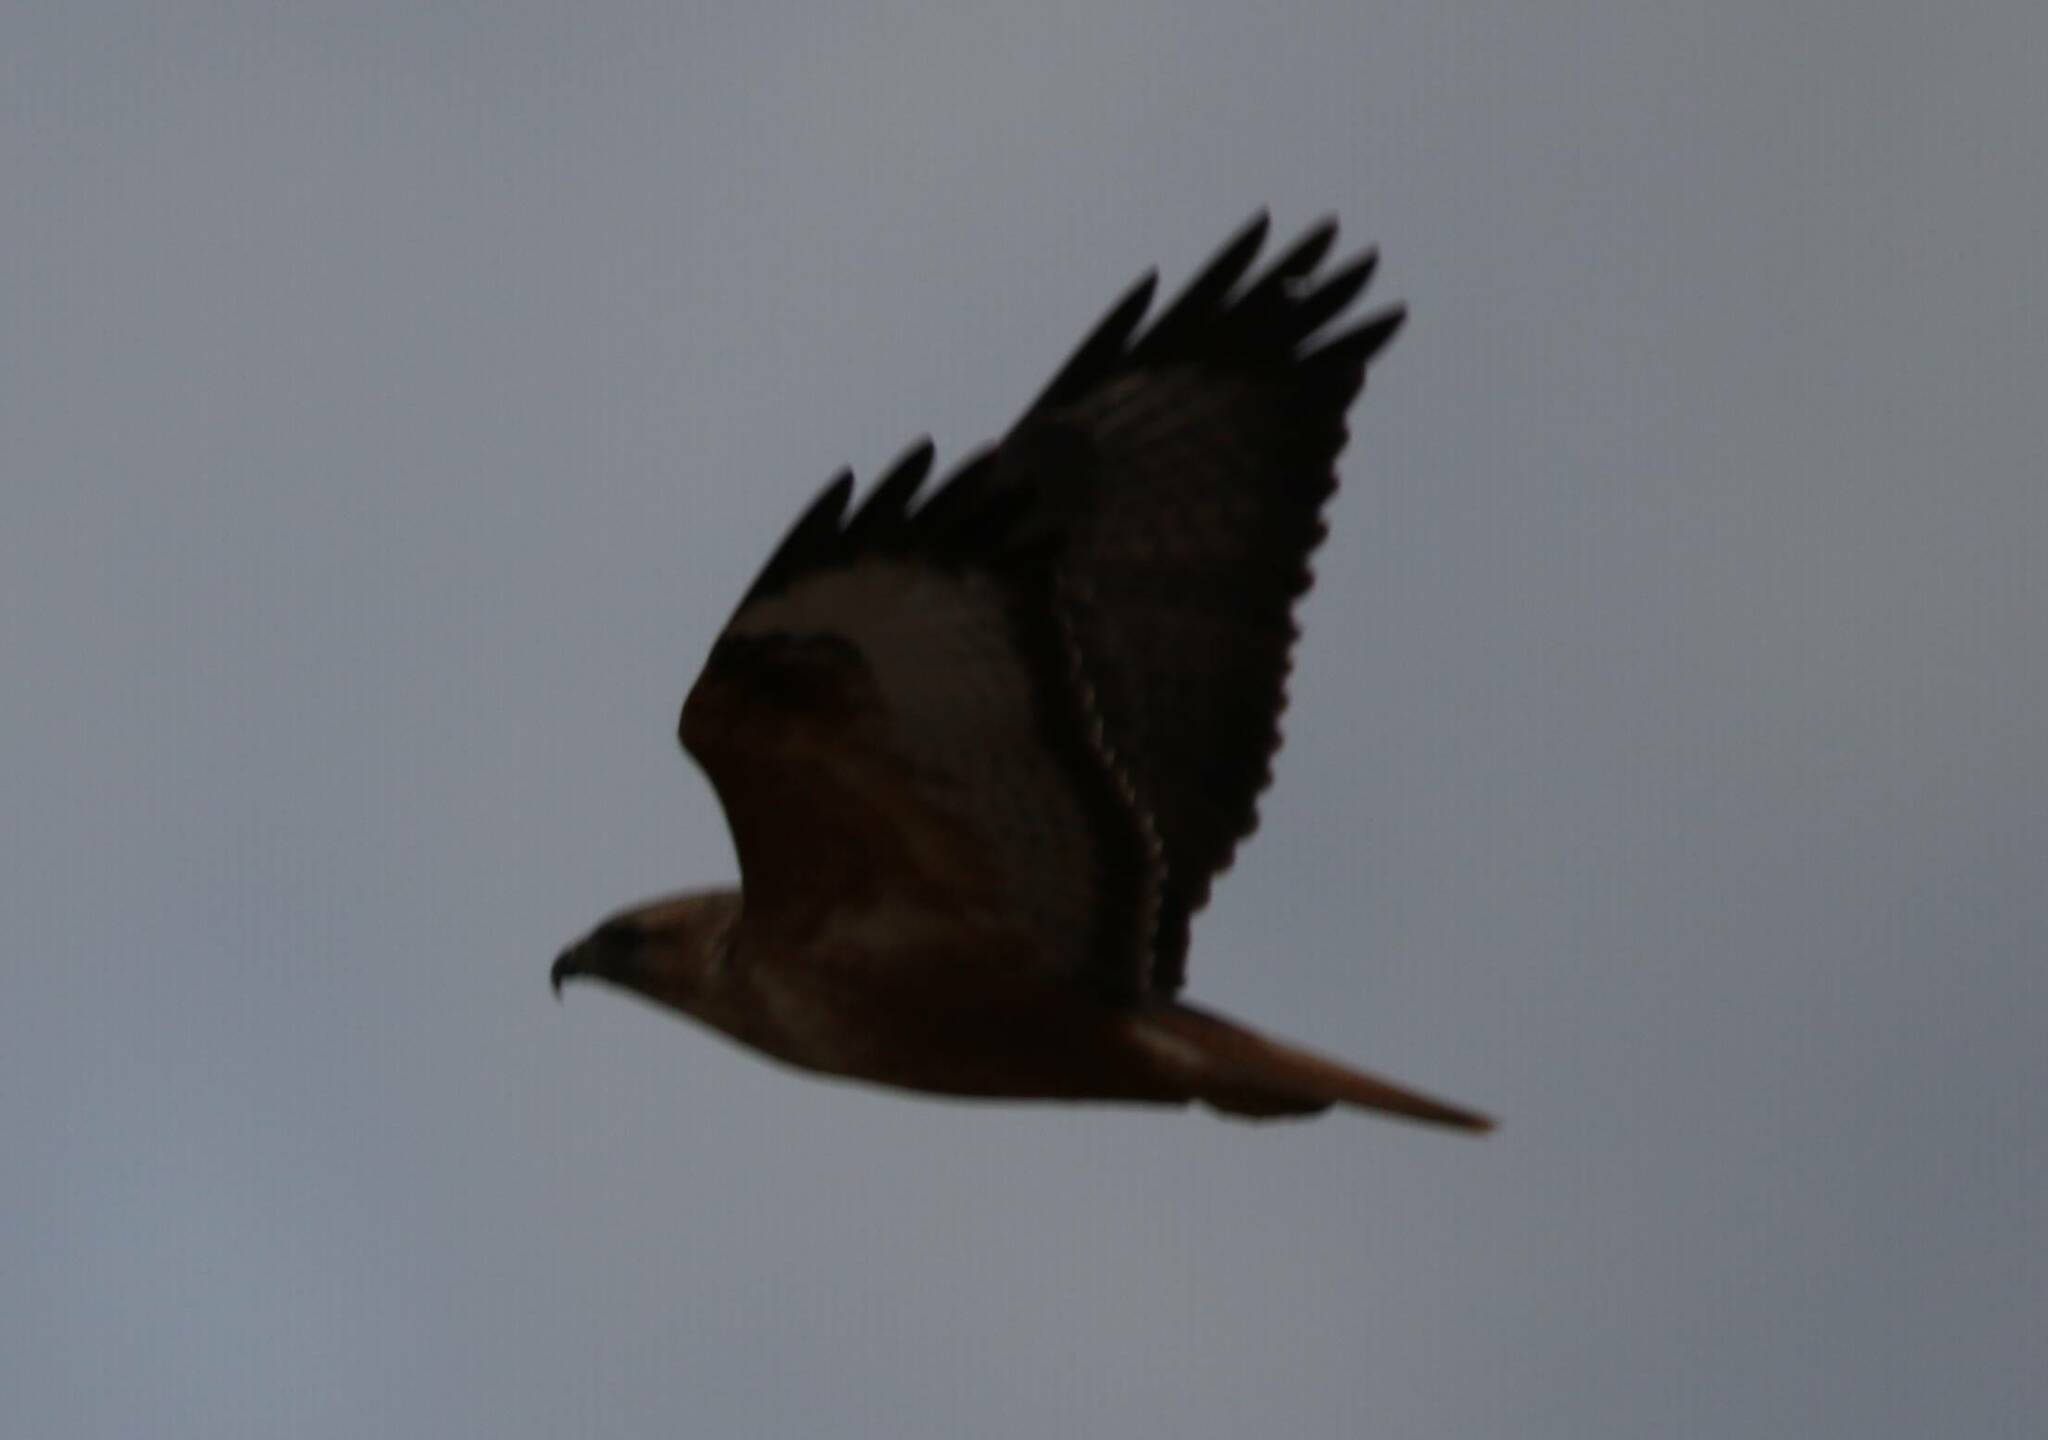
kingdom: Animalia
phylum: Chordata
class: Aves
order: Accipitriformes
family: Accipitridae
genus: Buteo
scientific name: Buteo rufinus
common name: Long-legged buzzard
